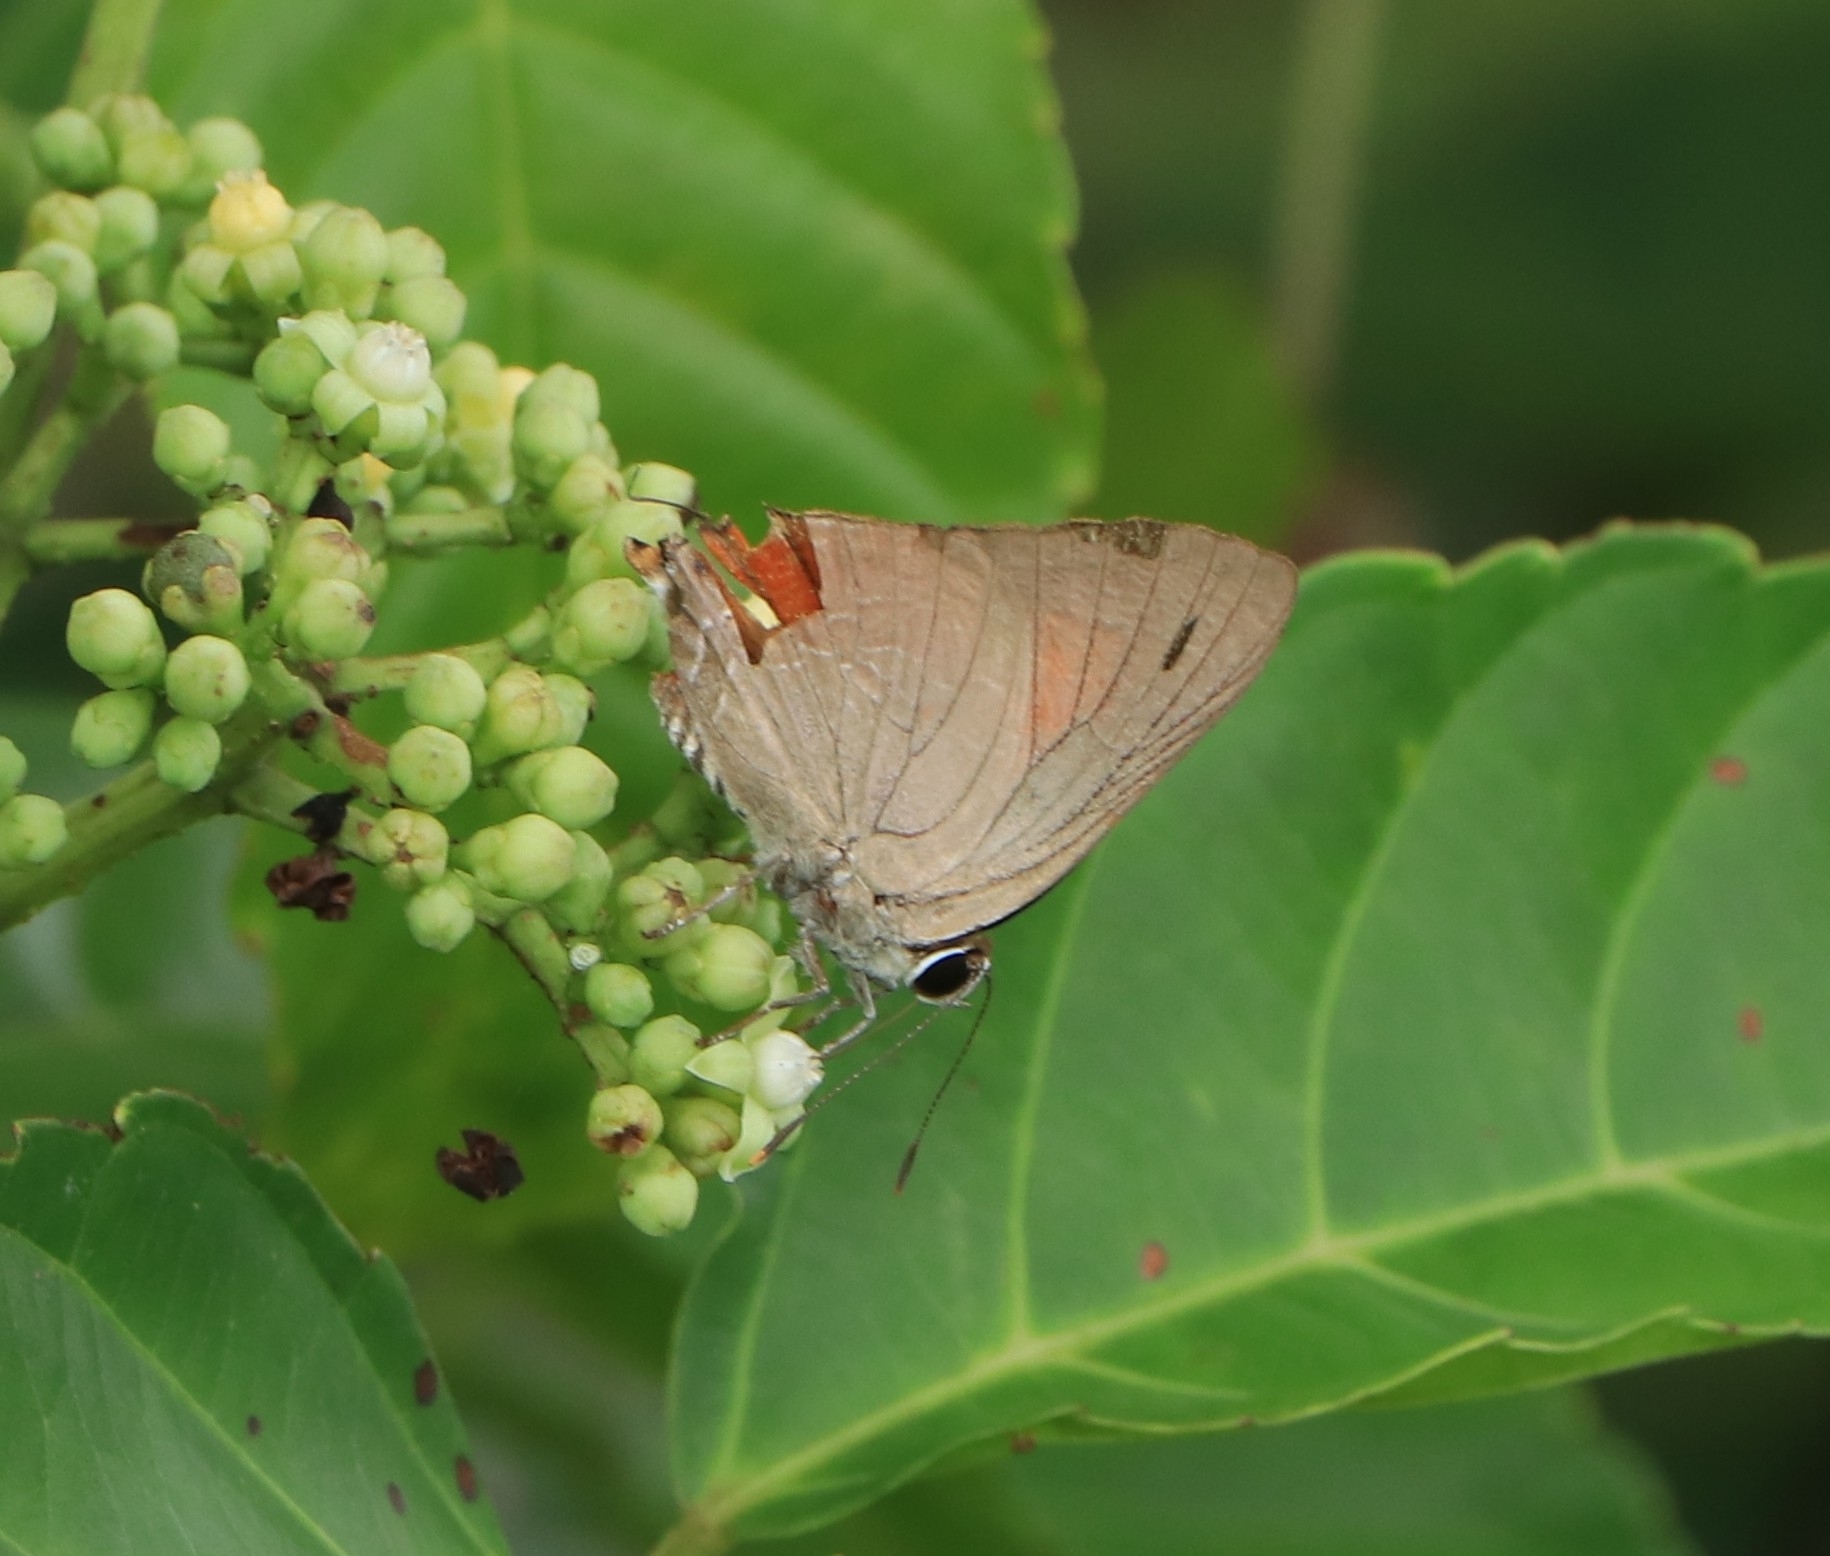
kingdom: Animalia
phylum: Arthropoda
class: Insecta
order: Lepidoptera
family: Lycaenidae
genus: Deudorix
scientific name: Deudorix epijarbas
